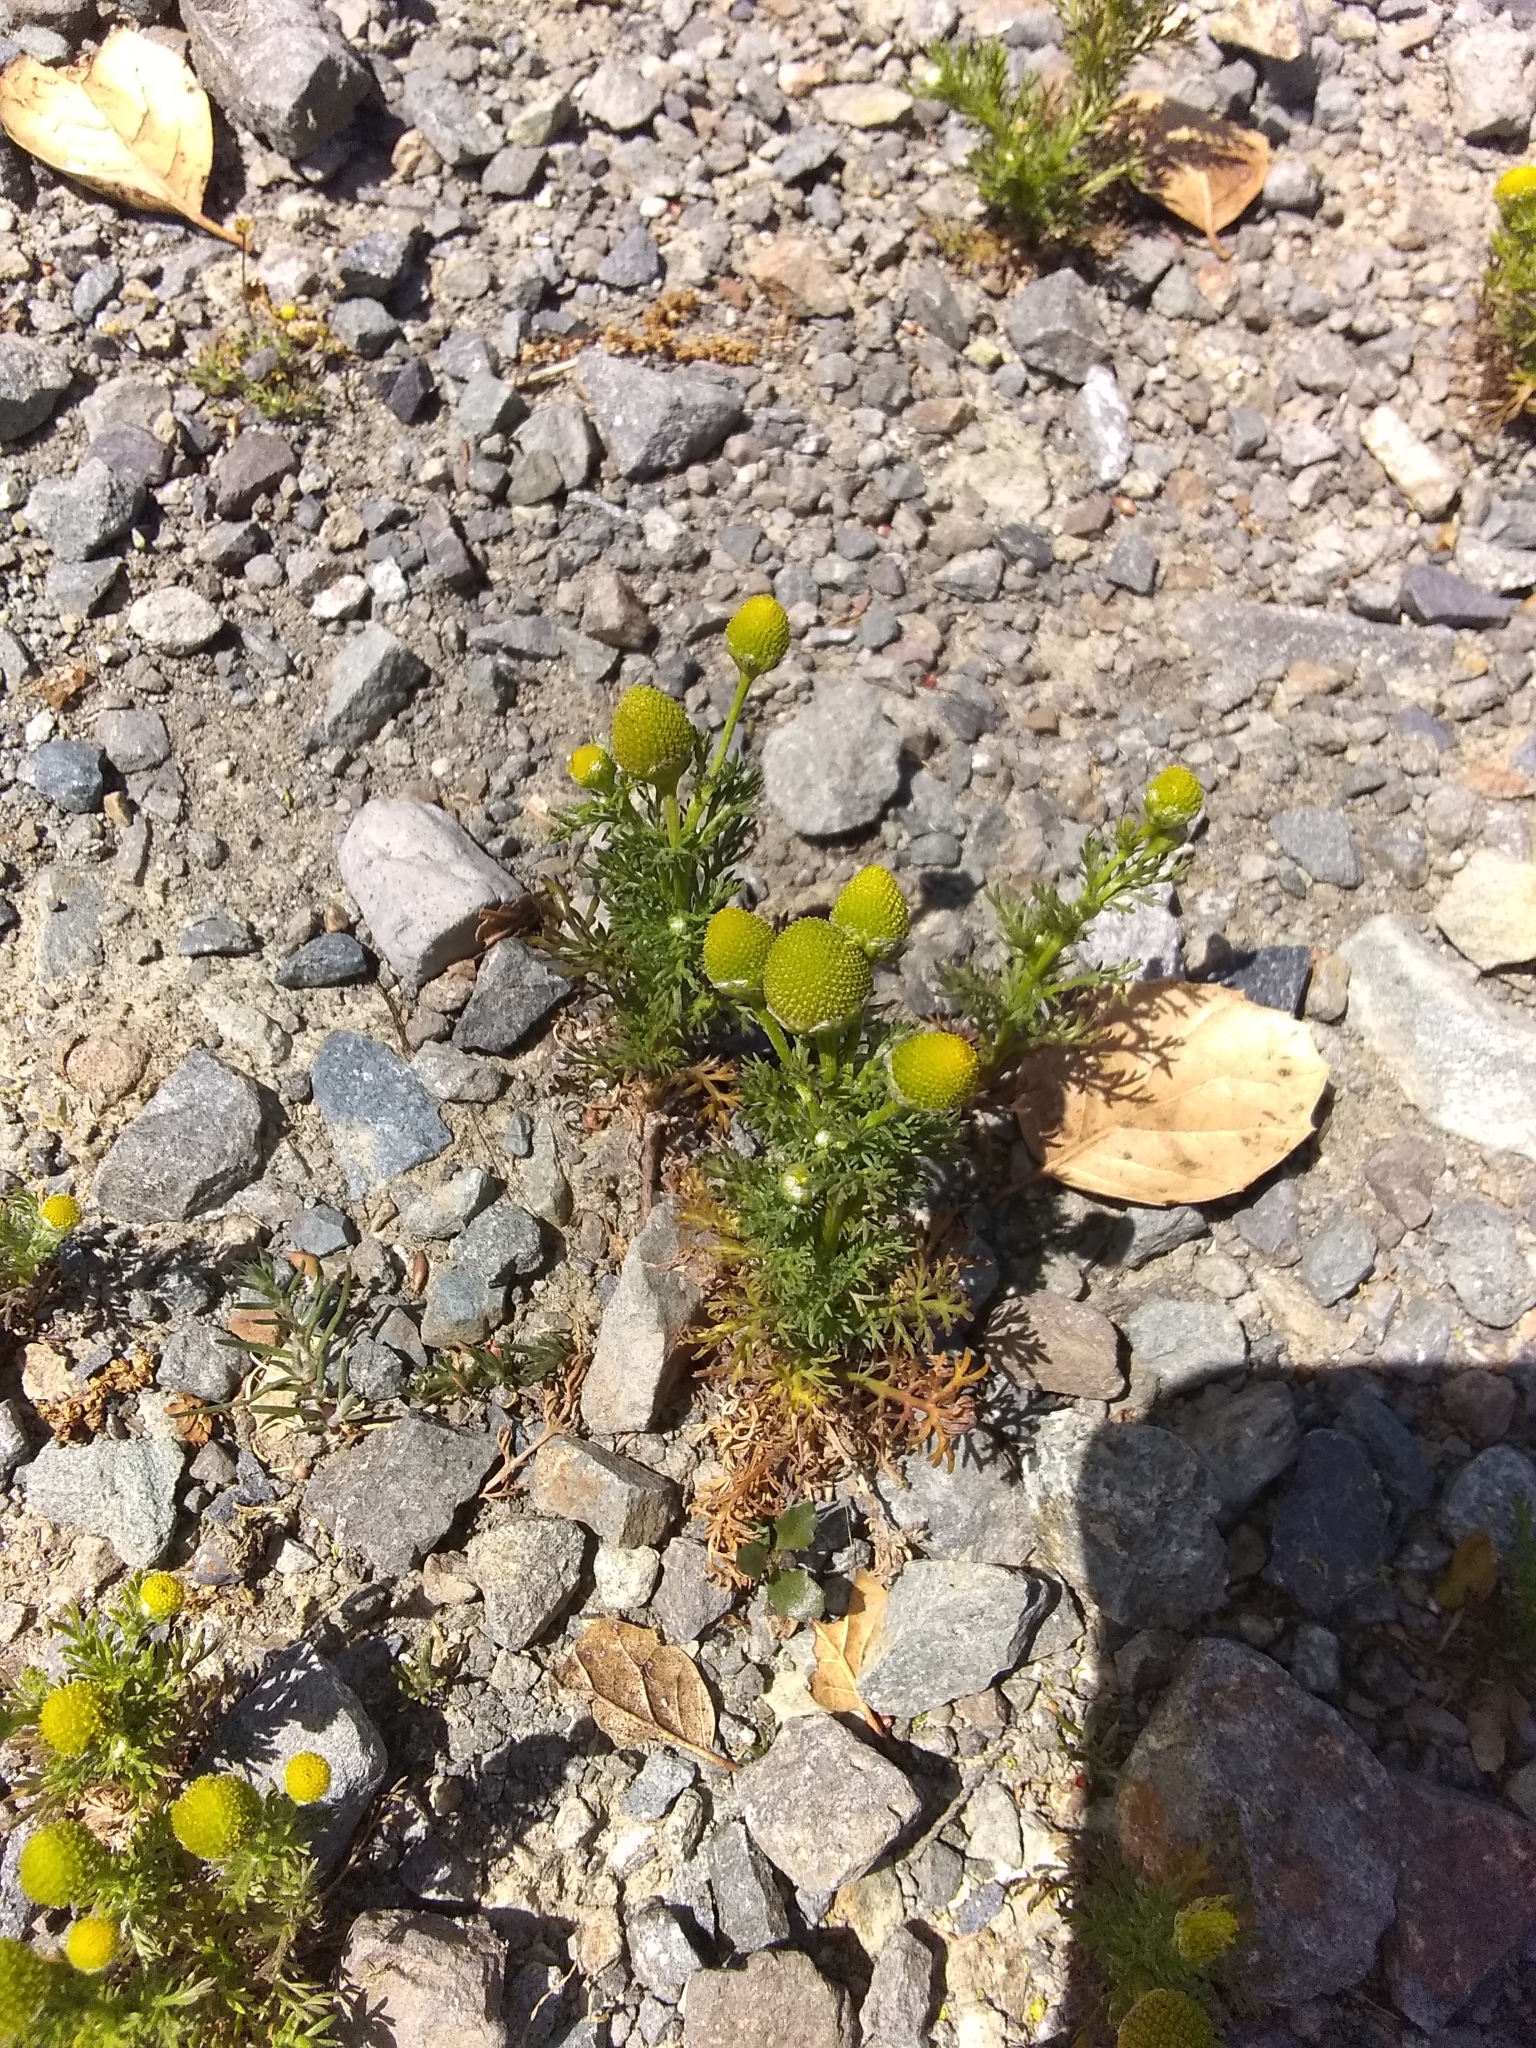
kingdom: Plantae
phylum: Tracheophyta
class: Magnoliopsida
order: Asterales
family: Asteraceae
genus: Matricaria
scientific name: Matricaria discoidea
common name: Disc mayweed
